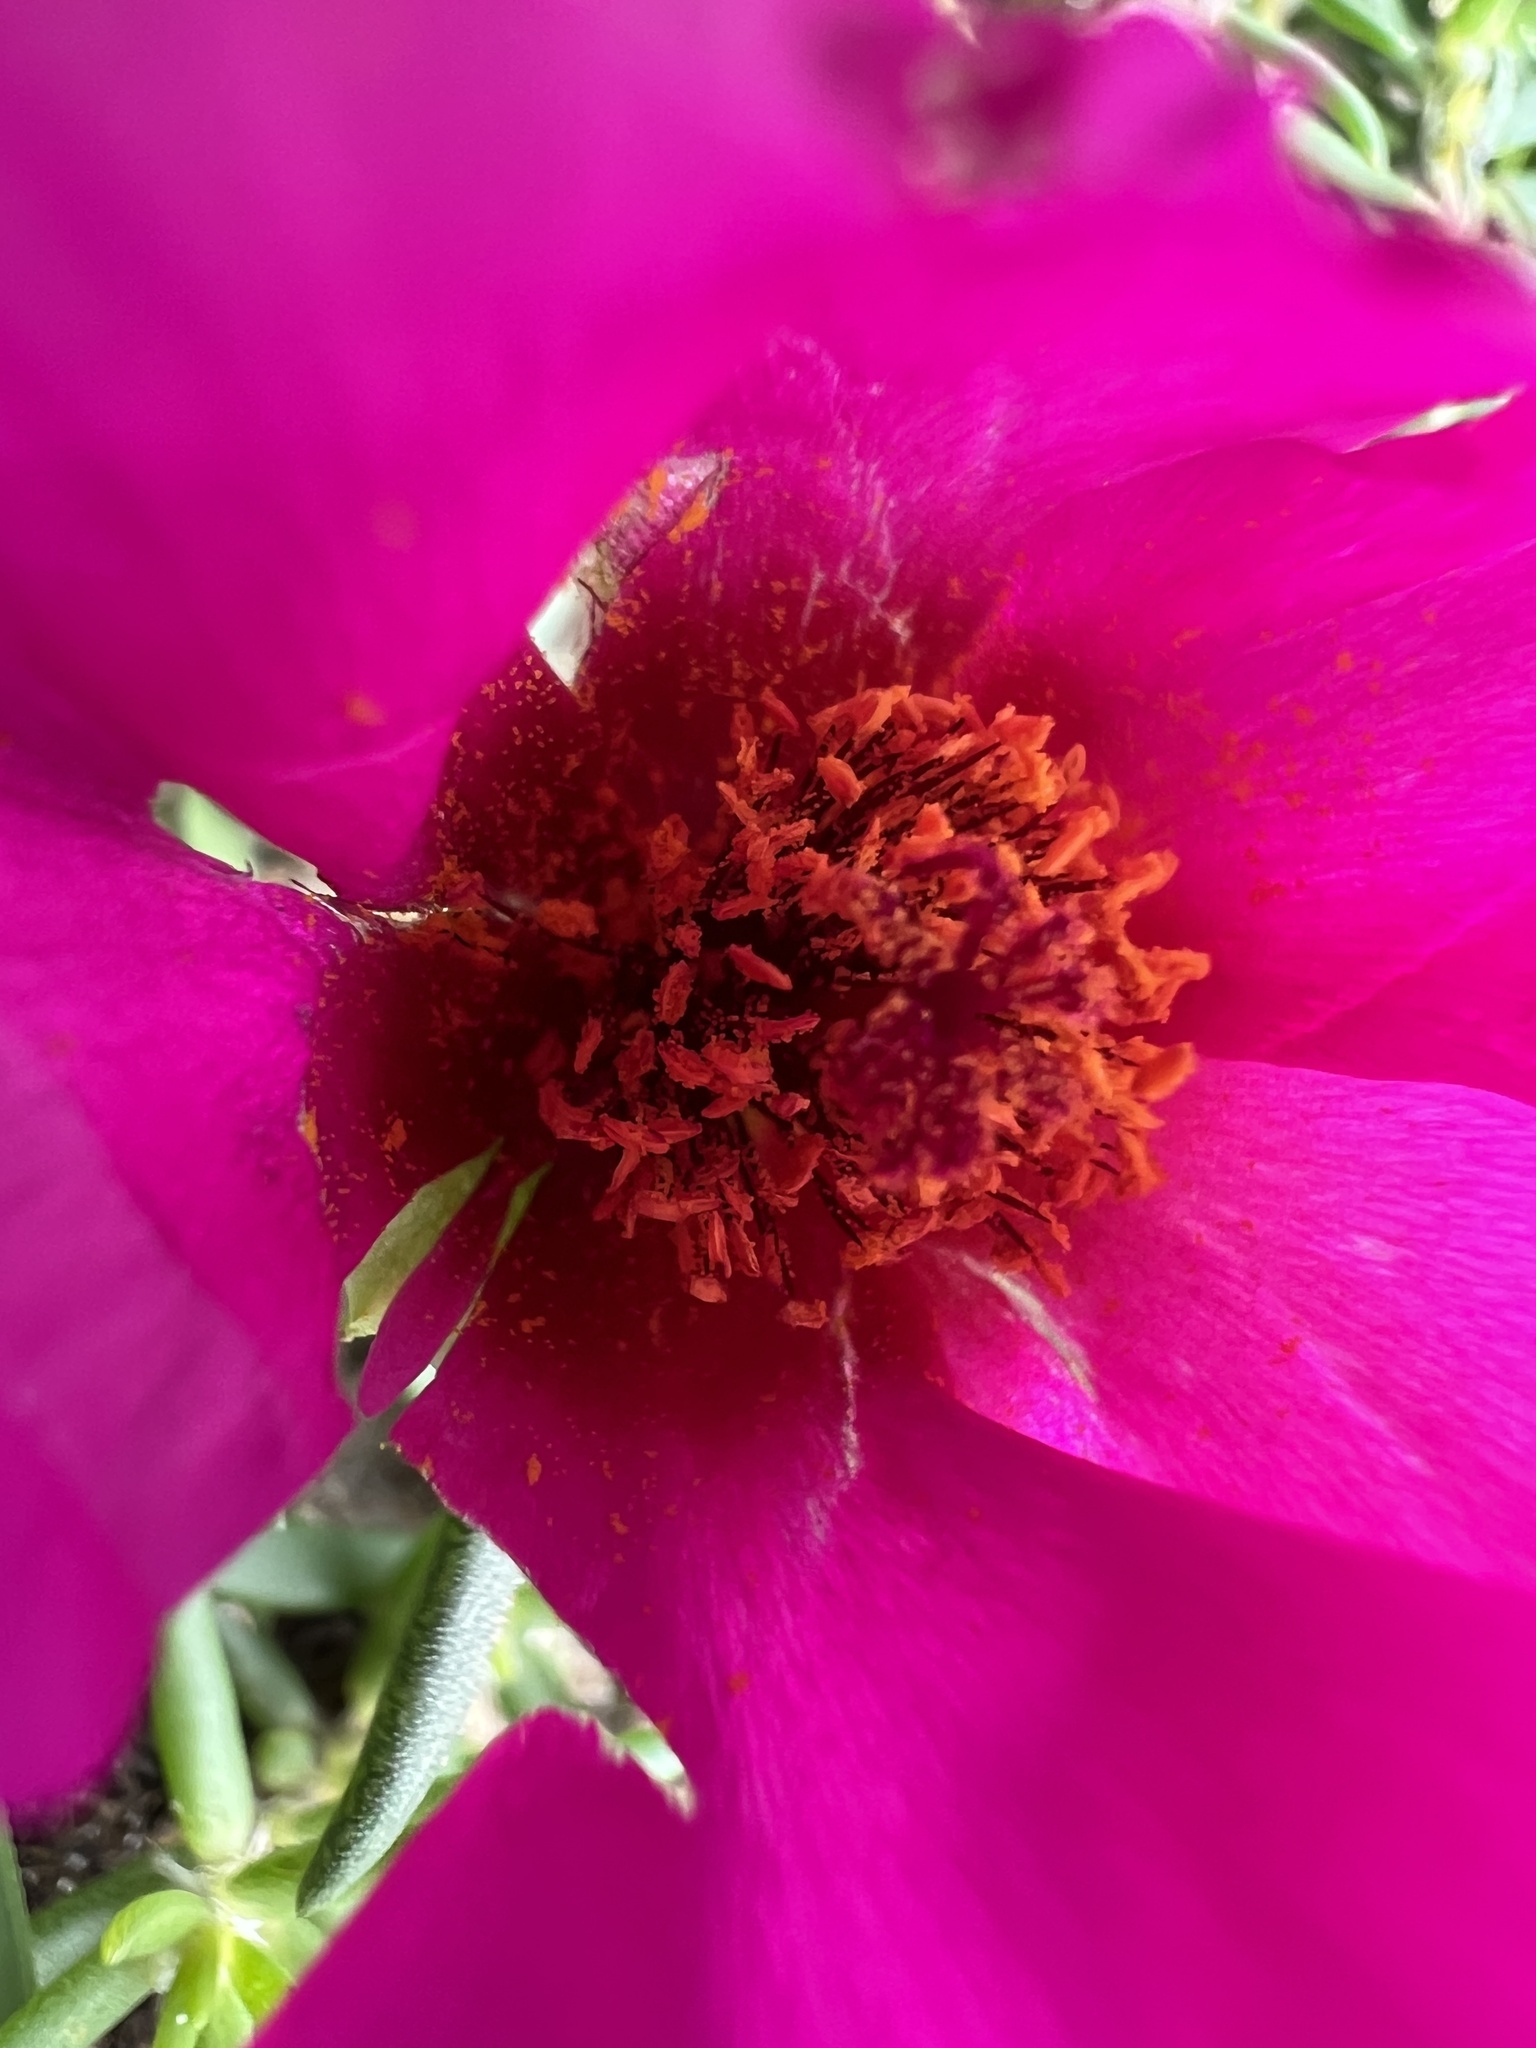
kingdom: Plantae
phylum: Tracheophyta
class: Magnoliopsida
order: Caryophyllales
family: Portulacaceae
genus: Portulaca
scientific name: Portulaca grandiflora
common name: Moss-rose
